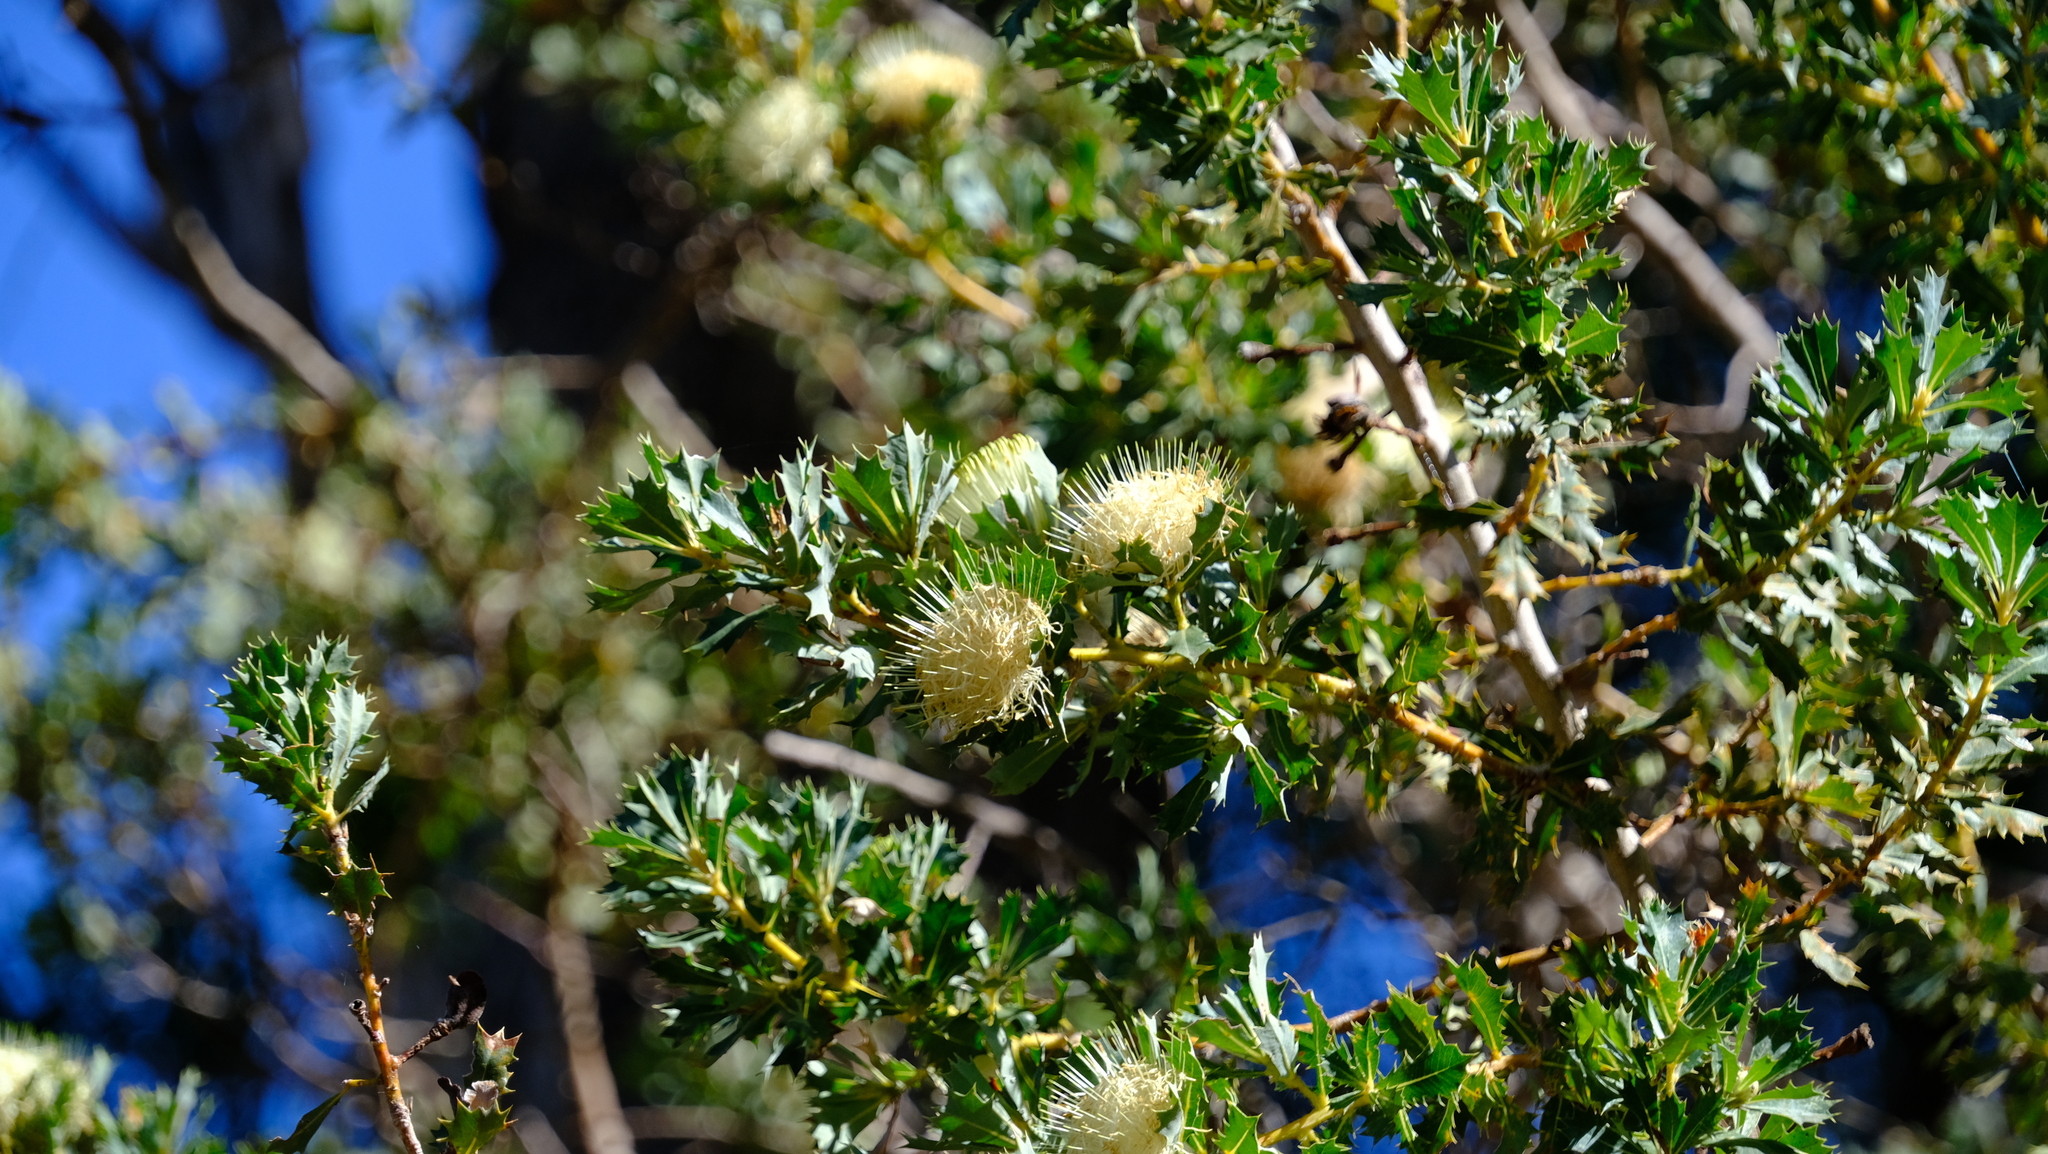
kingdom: Plantae
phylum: Tracheophyta
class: Magnoliopsida
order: Proteales
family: Proteaceae
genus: Banksia
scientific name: Banksia sessilis
